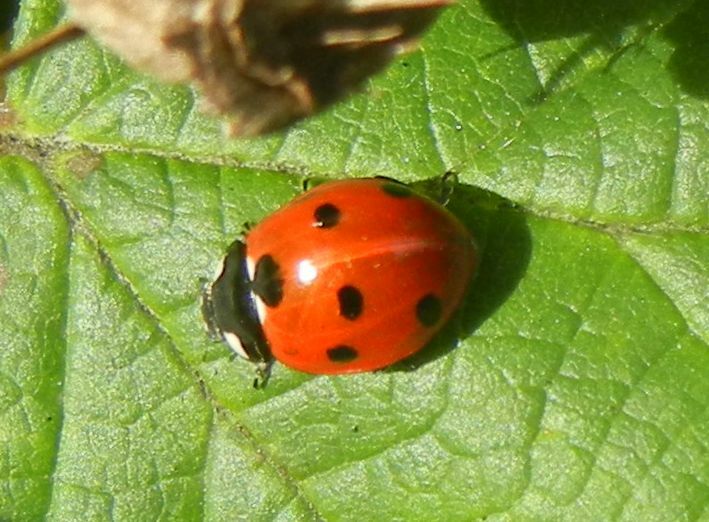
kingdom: Animalia
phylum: Arthropoda
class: Insecta
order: Coleoptera
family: Coccinellidae
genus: Coccinella
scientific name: Coccinella septempunctata
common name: Sevenspotted lady beetle
